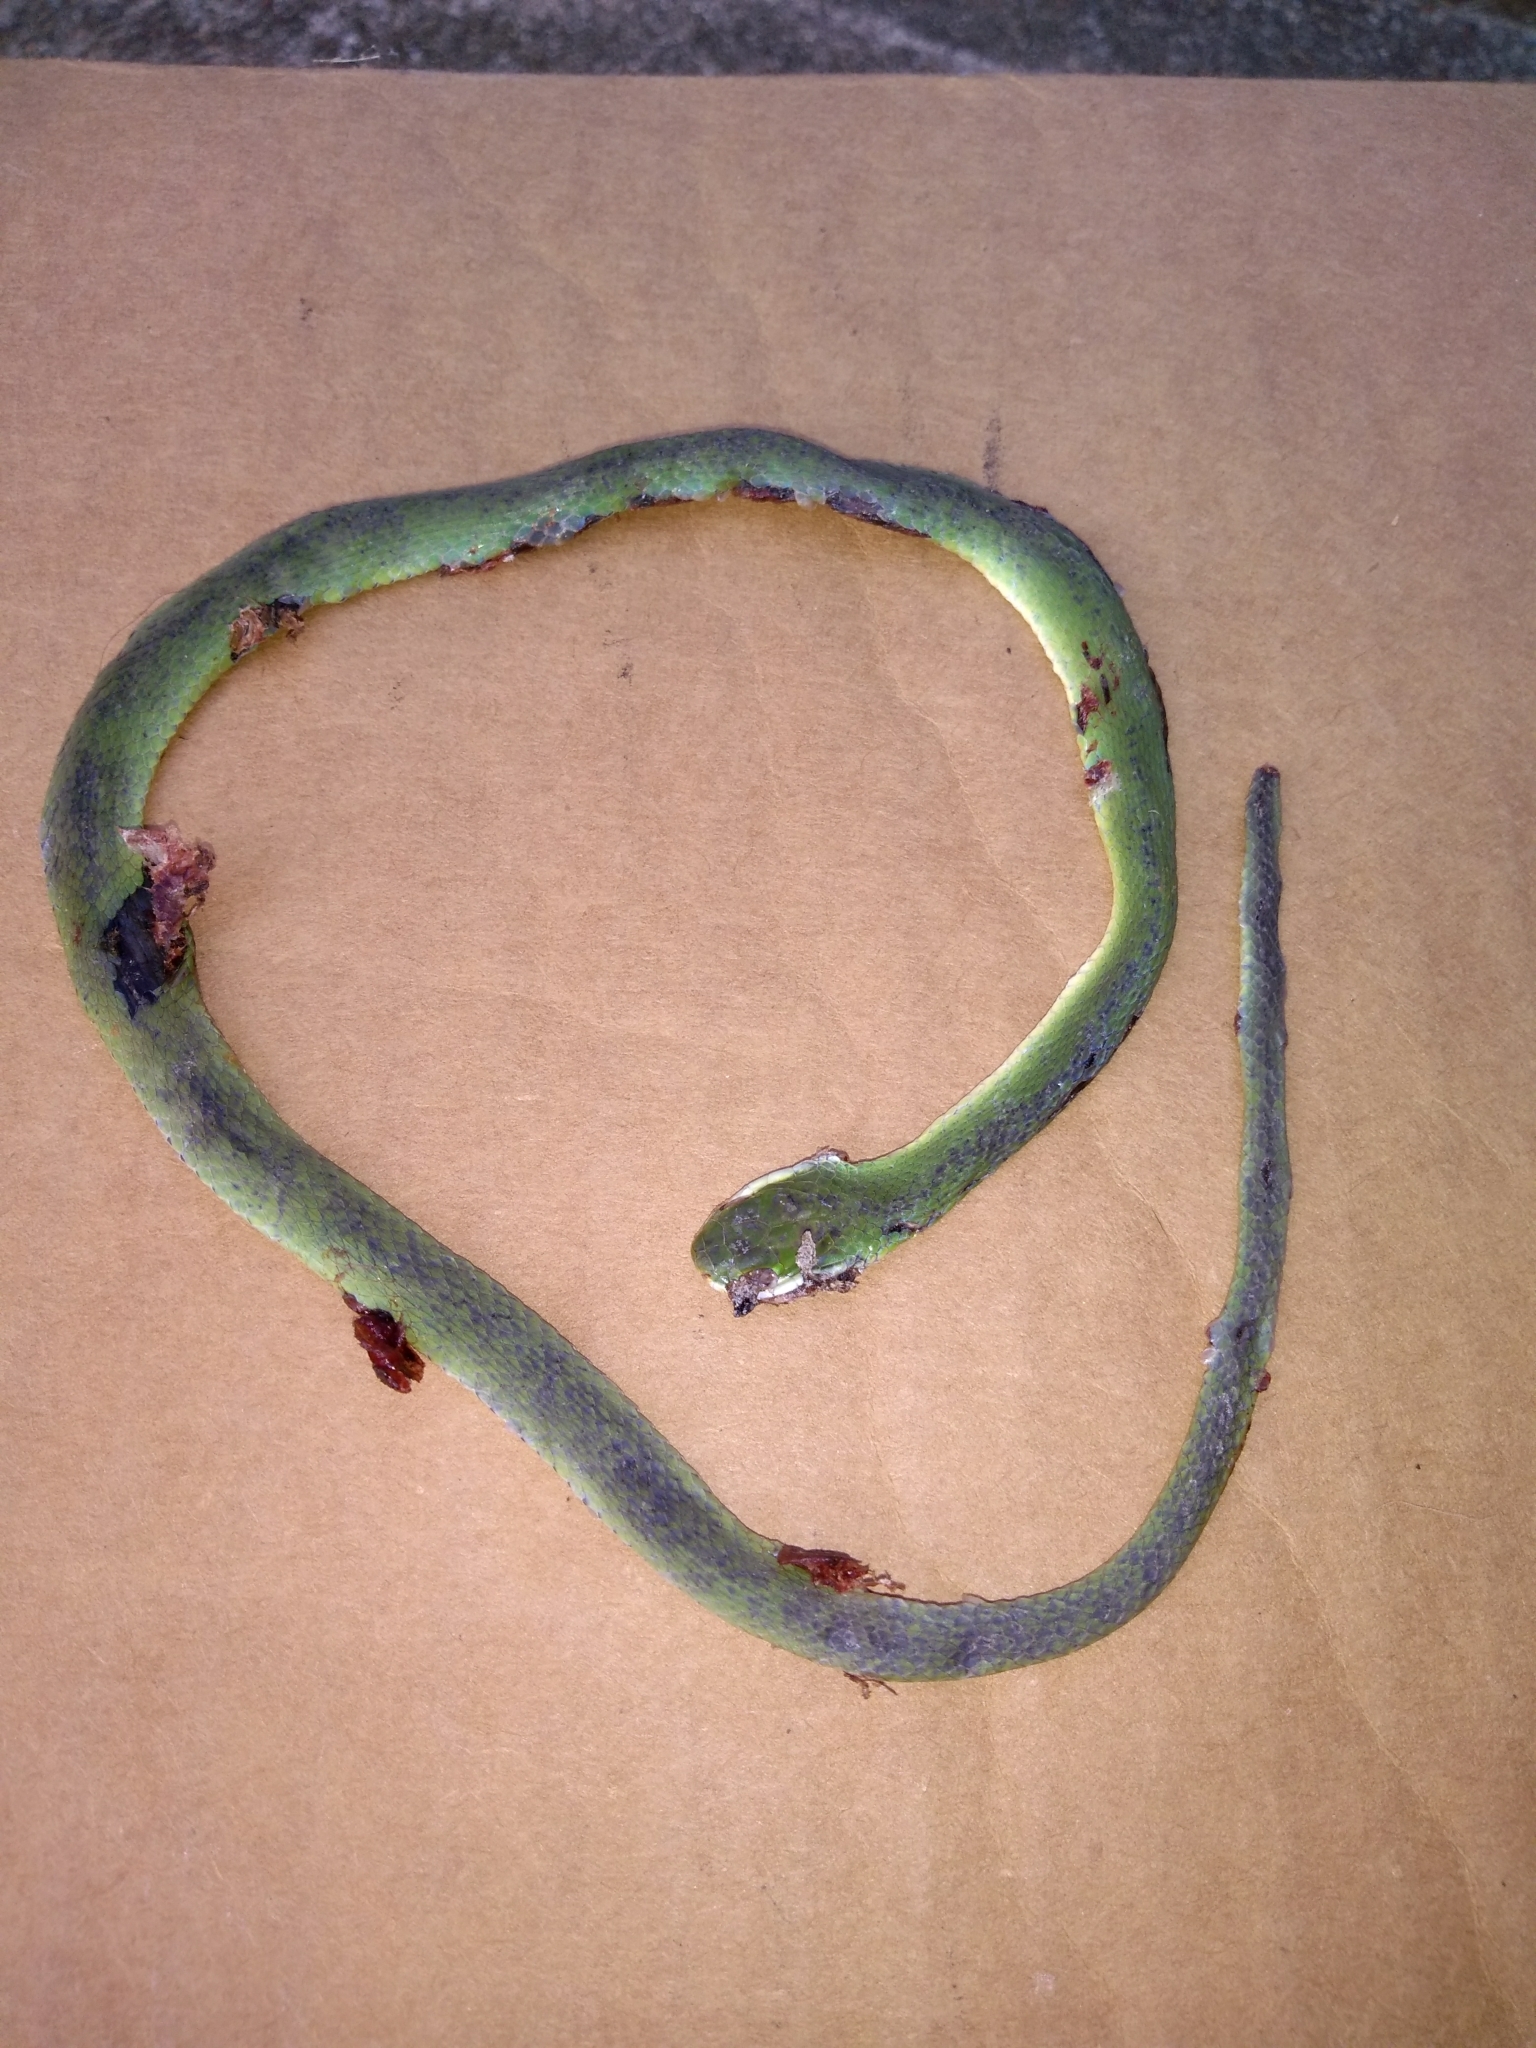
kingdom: Animalia
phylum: Chordata
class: Squamata
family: Colubridae
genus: Opheodrys
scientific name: Opheodrys aestivus
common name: Rough greensnake
